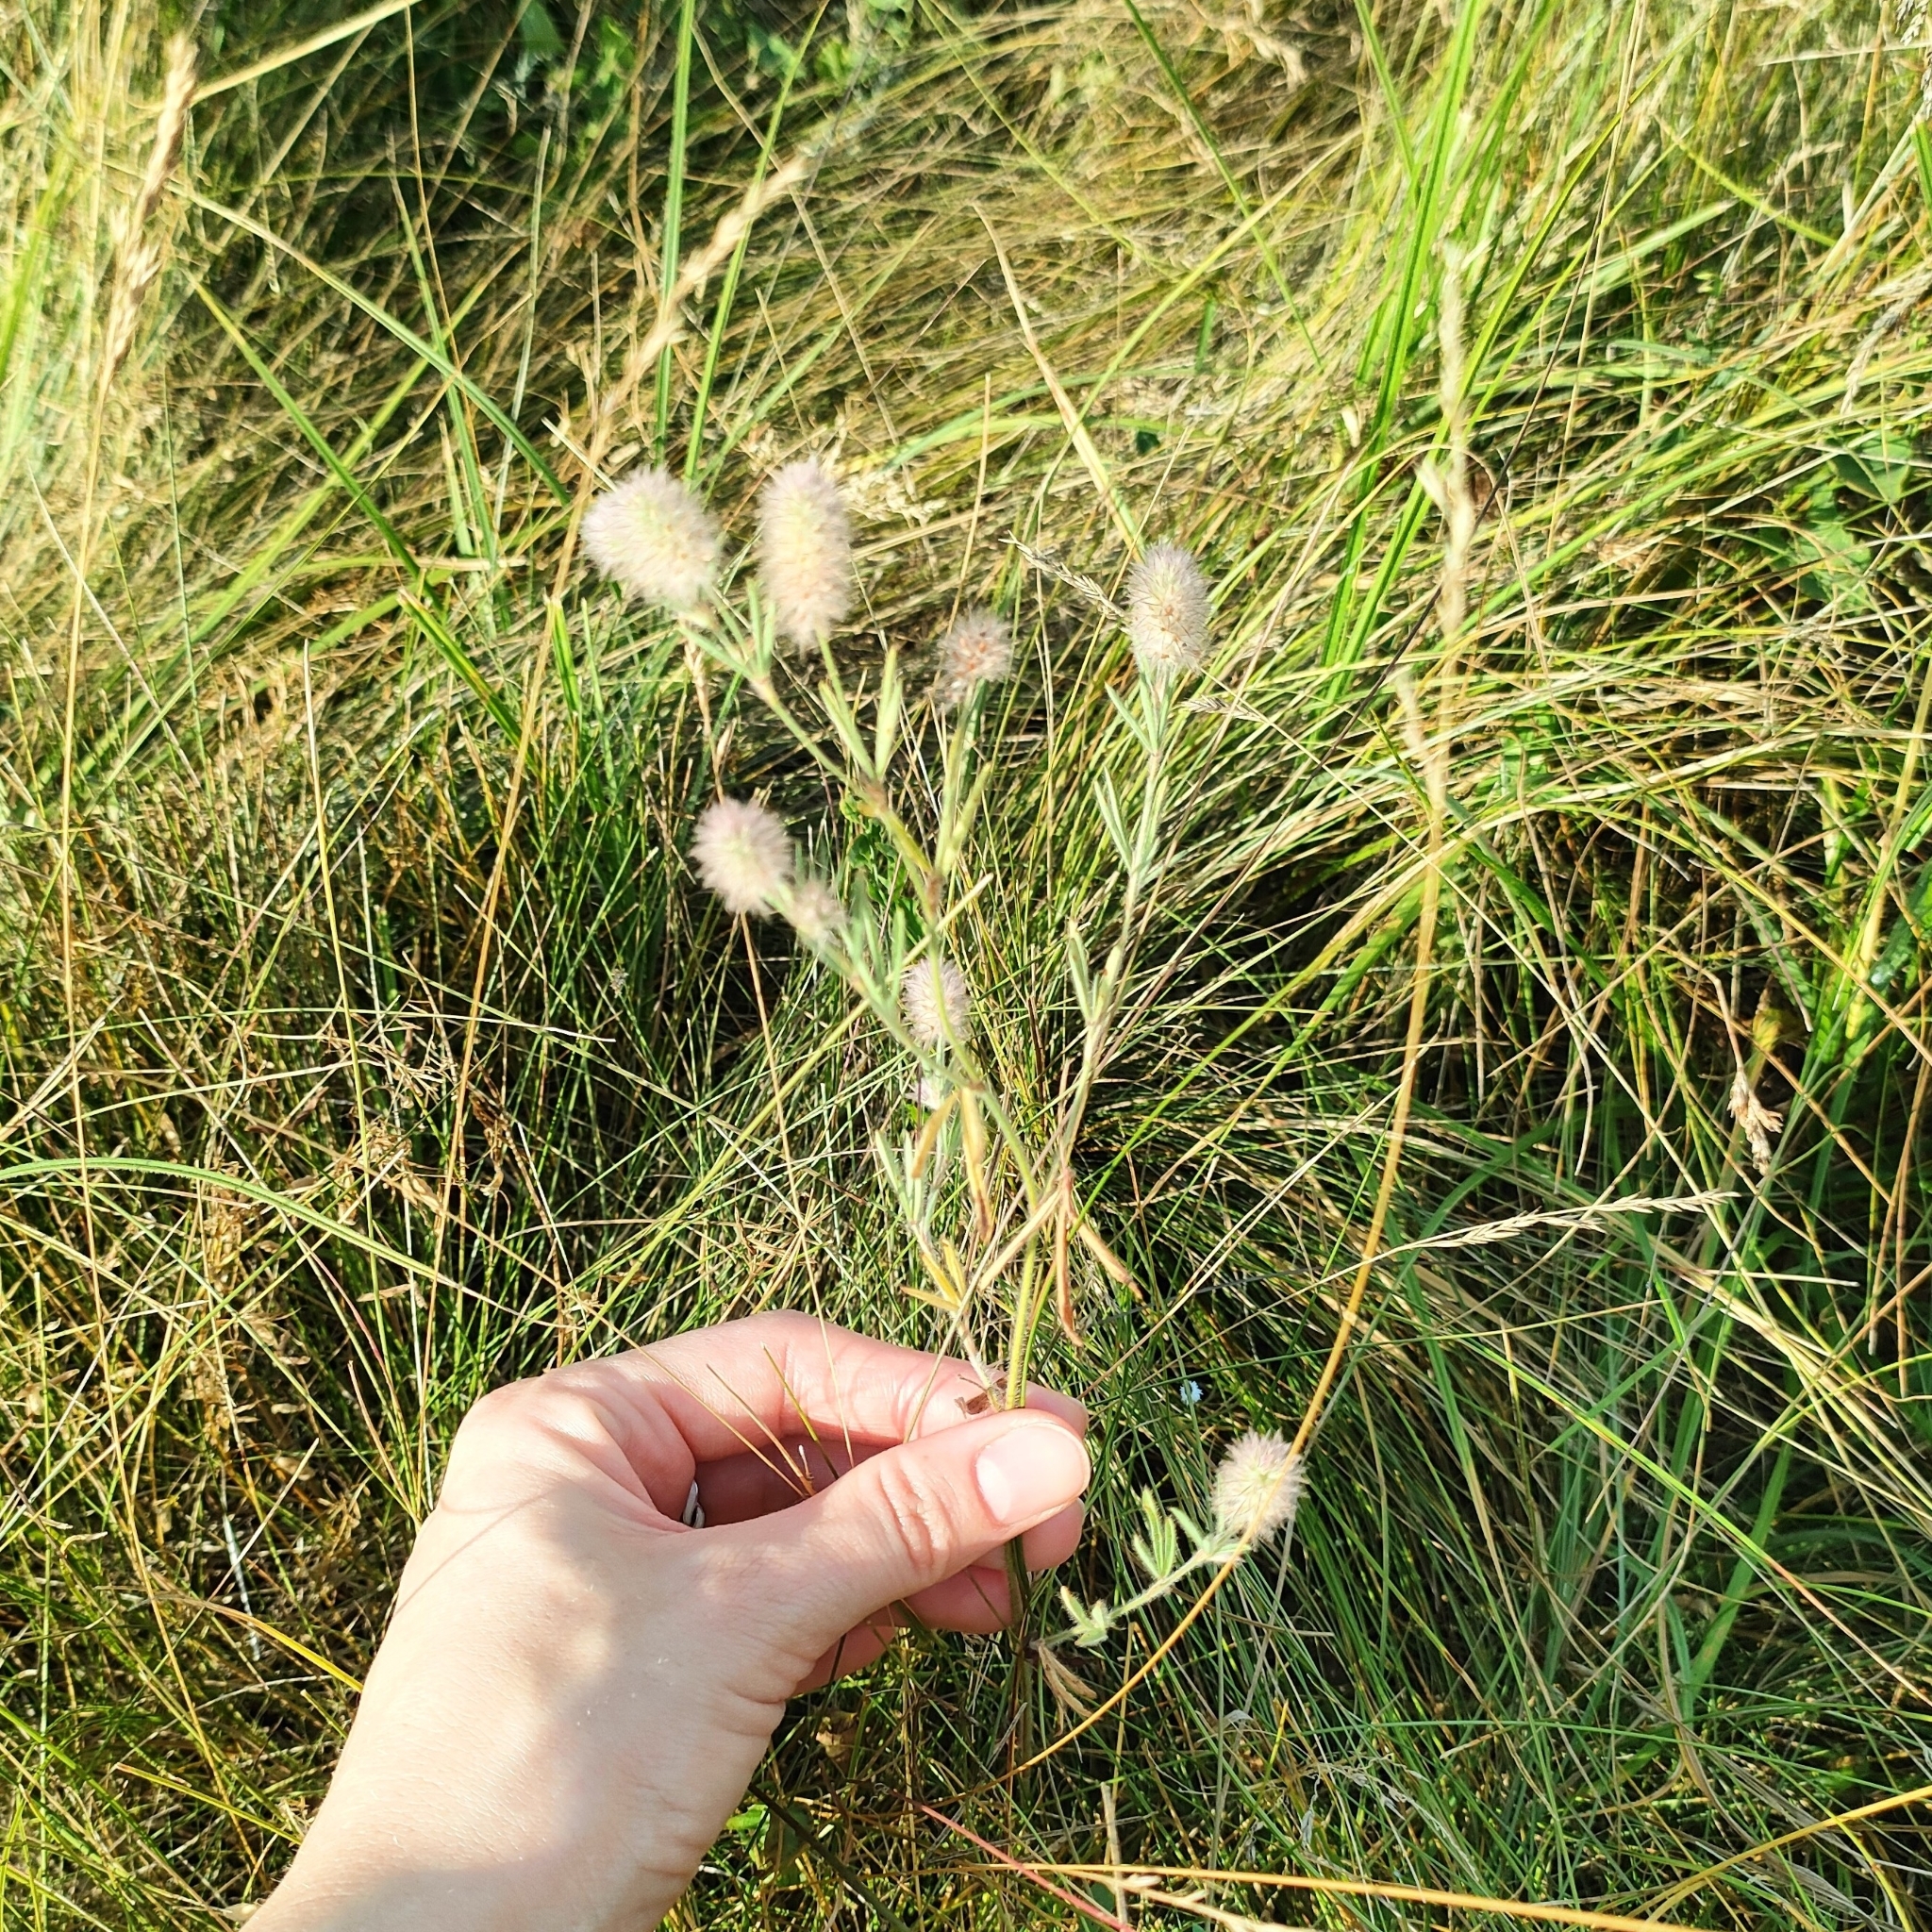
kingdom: Plantae
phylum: Tracheophyta
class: Magnoliopsida
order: Fabales
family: Fabaceae
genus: Trifolium
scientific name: Trifolium arvense
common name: Hare's-foot clover
